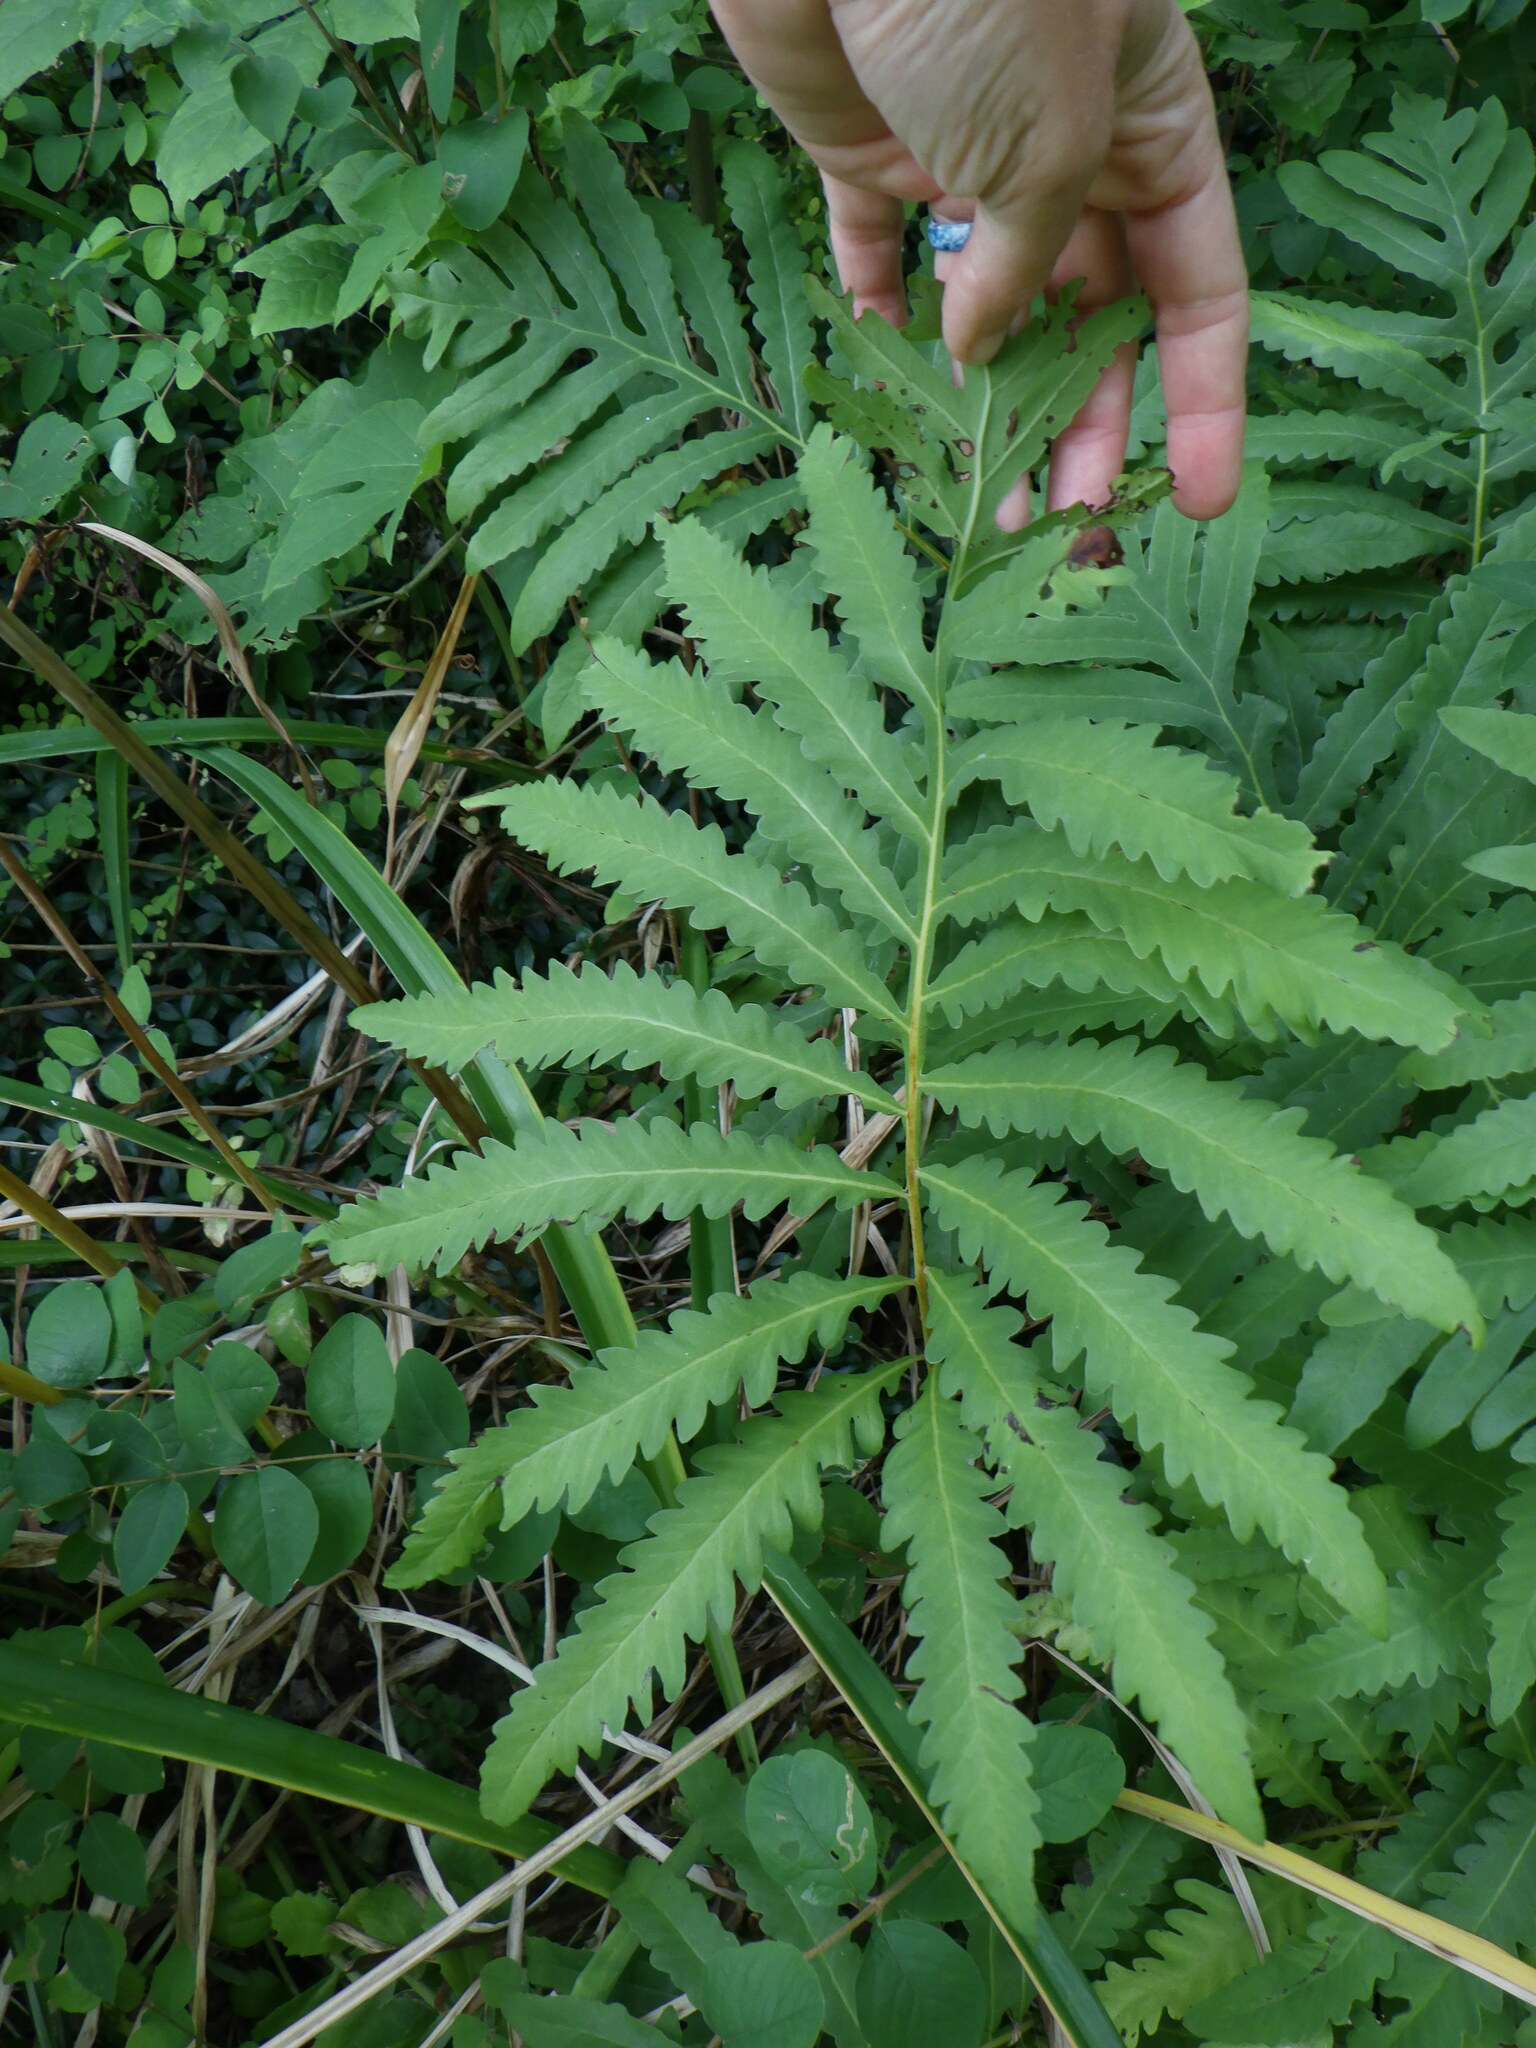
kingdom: Plantae
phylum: Tracheophyta
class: Polypodiopsida
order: Polypodiales
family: Onocleaceae
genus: Onoclea
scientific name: Onoclea sensibilis
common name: Sensitive fern
